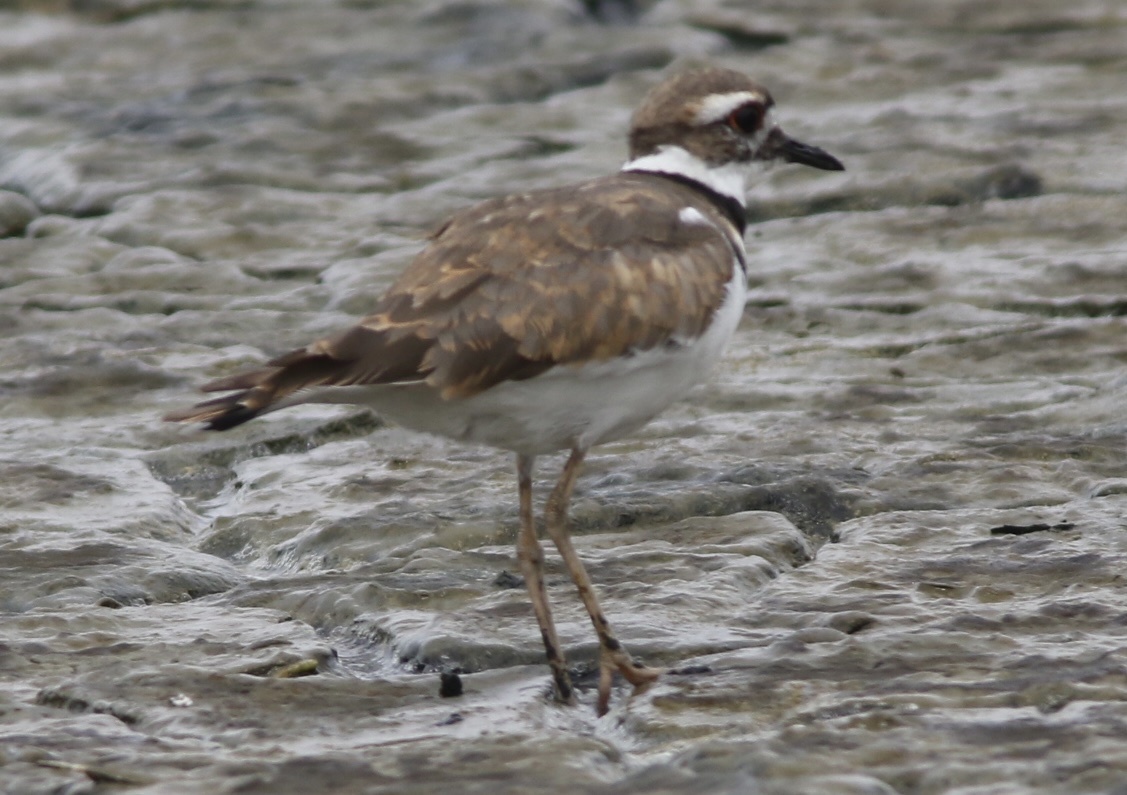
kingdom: Animalia
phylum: Chordata
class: Aves
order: Charadriiformes
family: Charadriidae
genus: Charadrius
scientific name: Charadrius vociferus
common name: Killdeer
